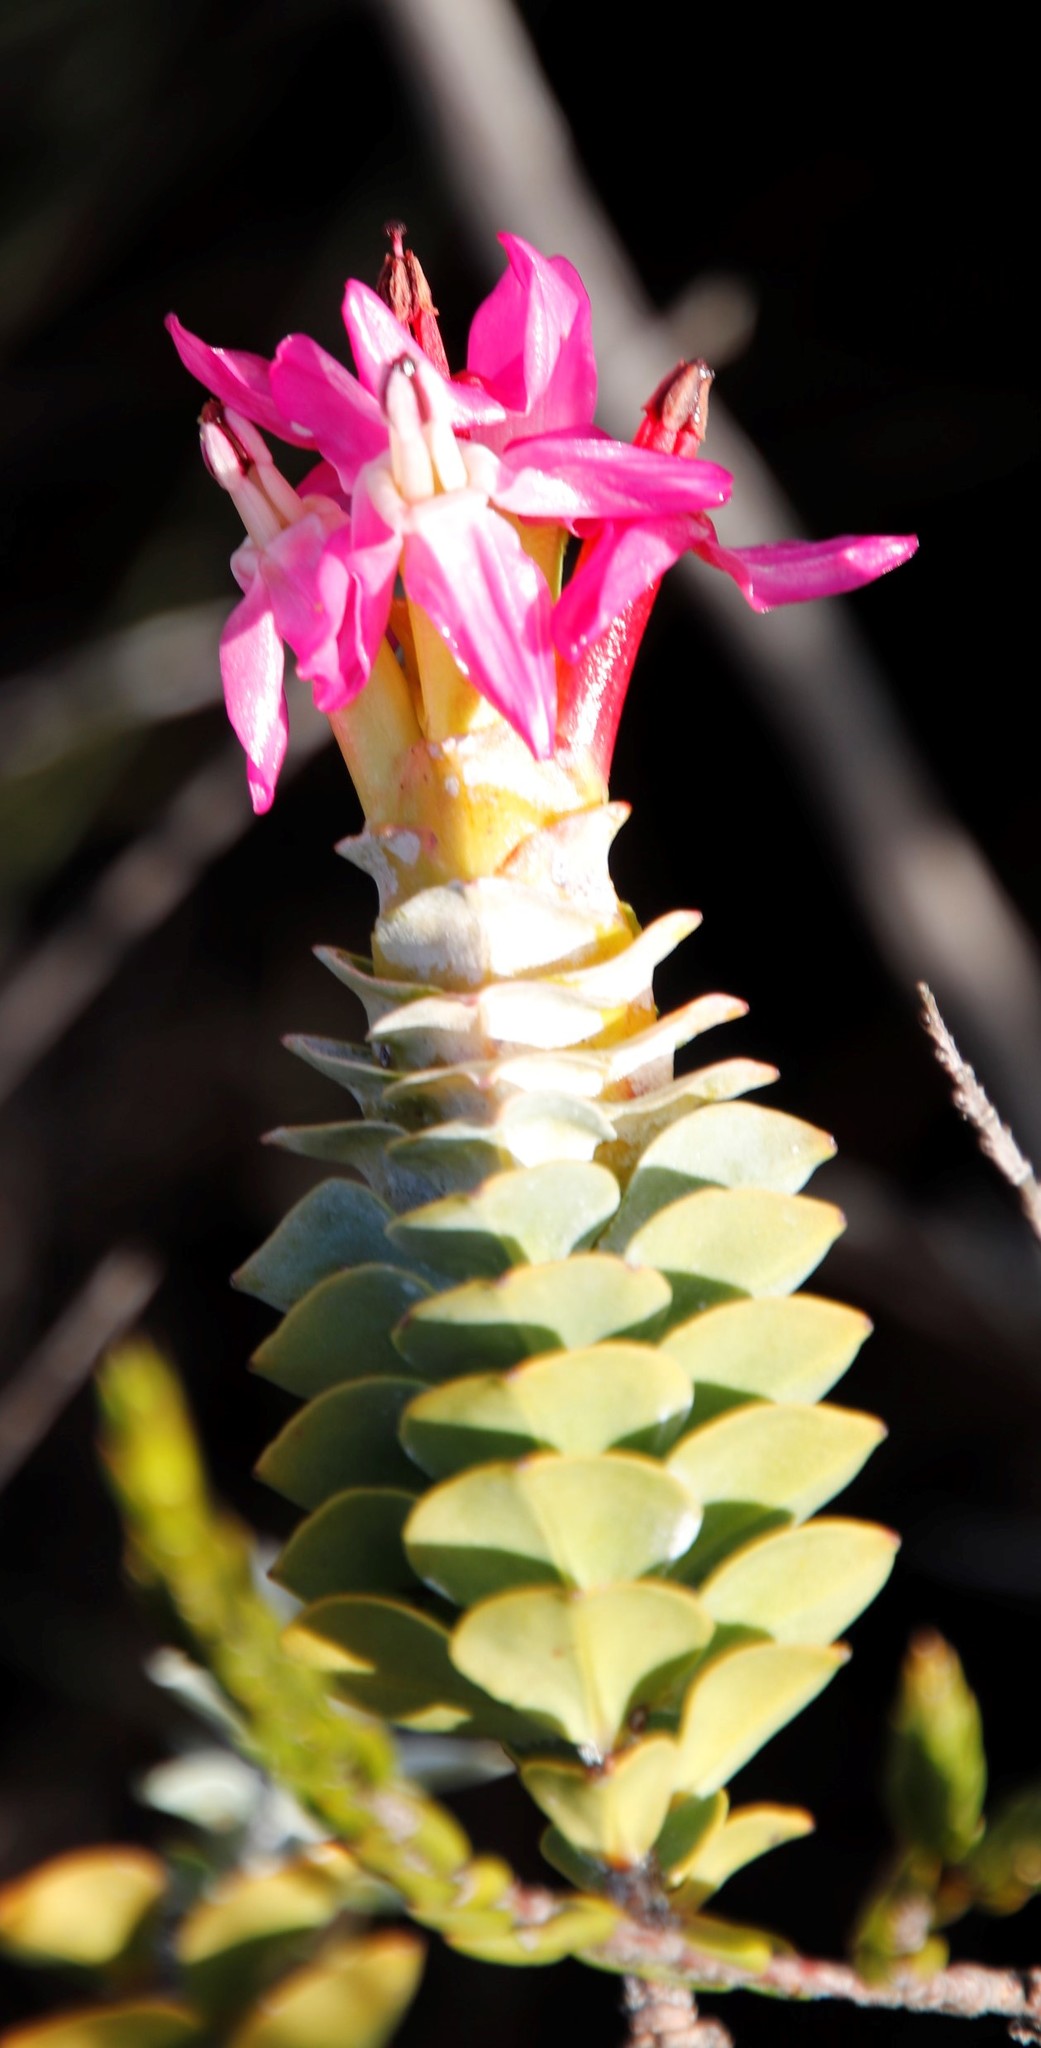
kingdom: Plantae
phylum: Tracheophyta
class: Magnoliopsida
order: Myrtales
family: Penaeaceae
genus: Saltera
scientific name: Saltera sarcocolla
